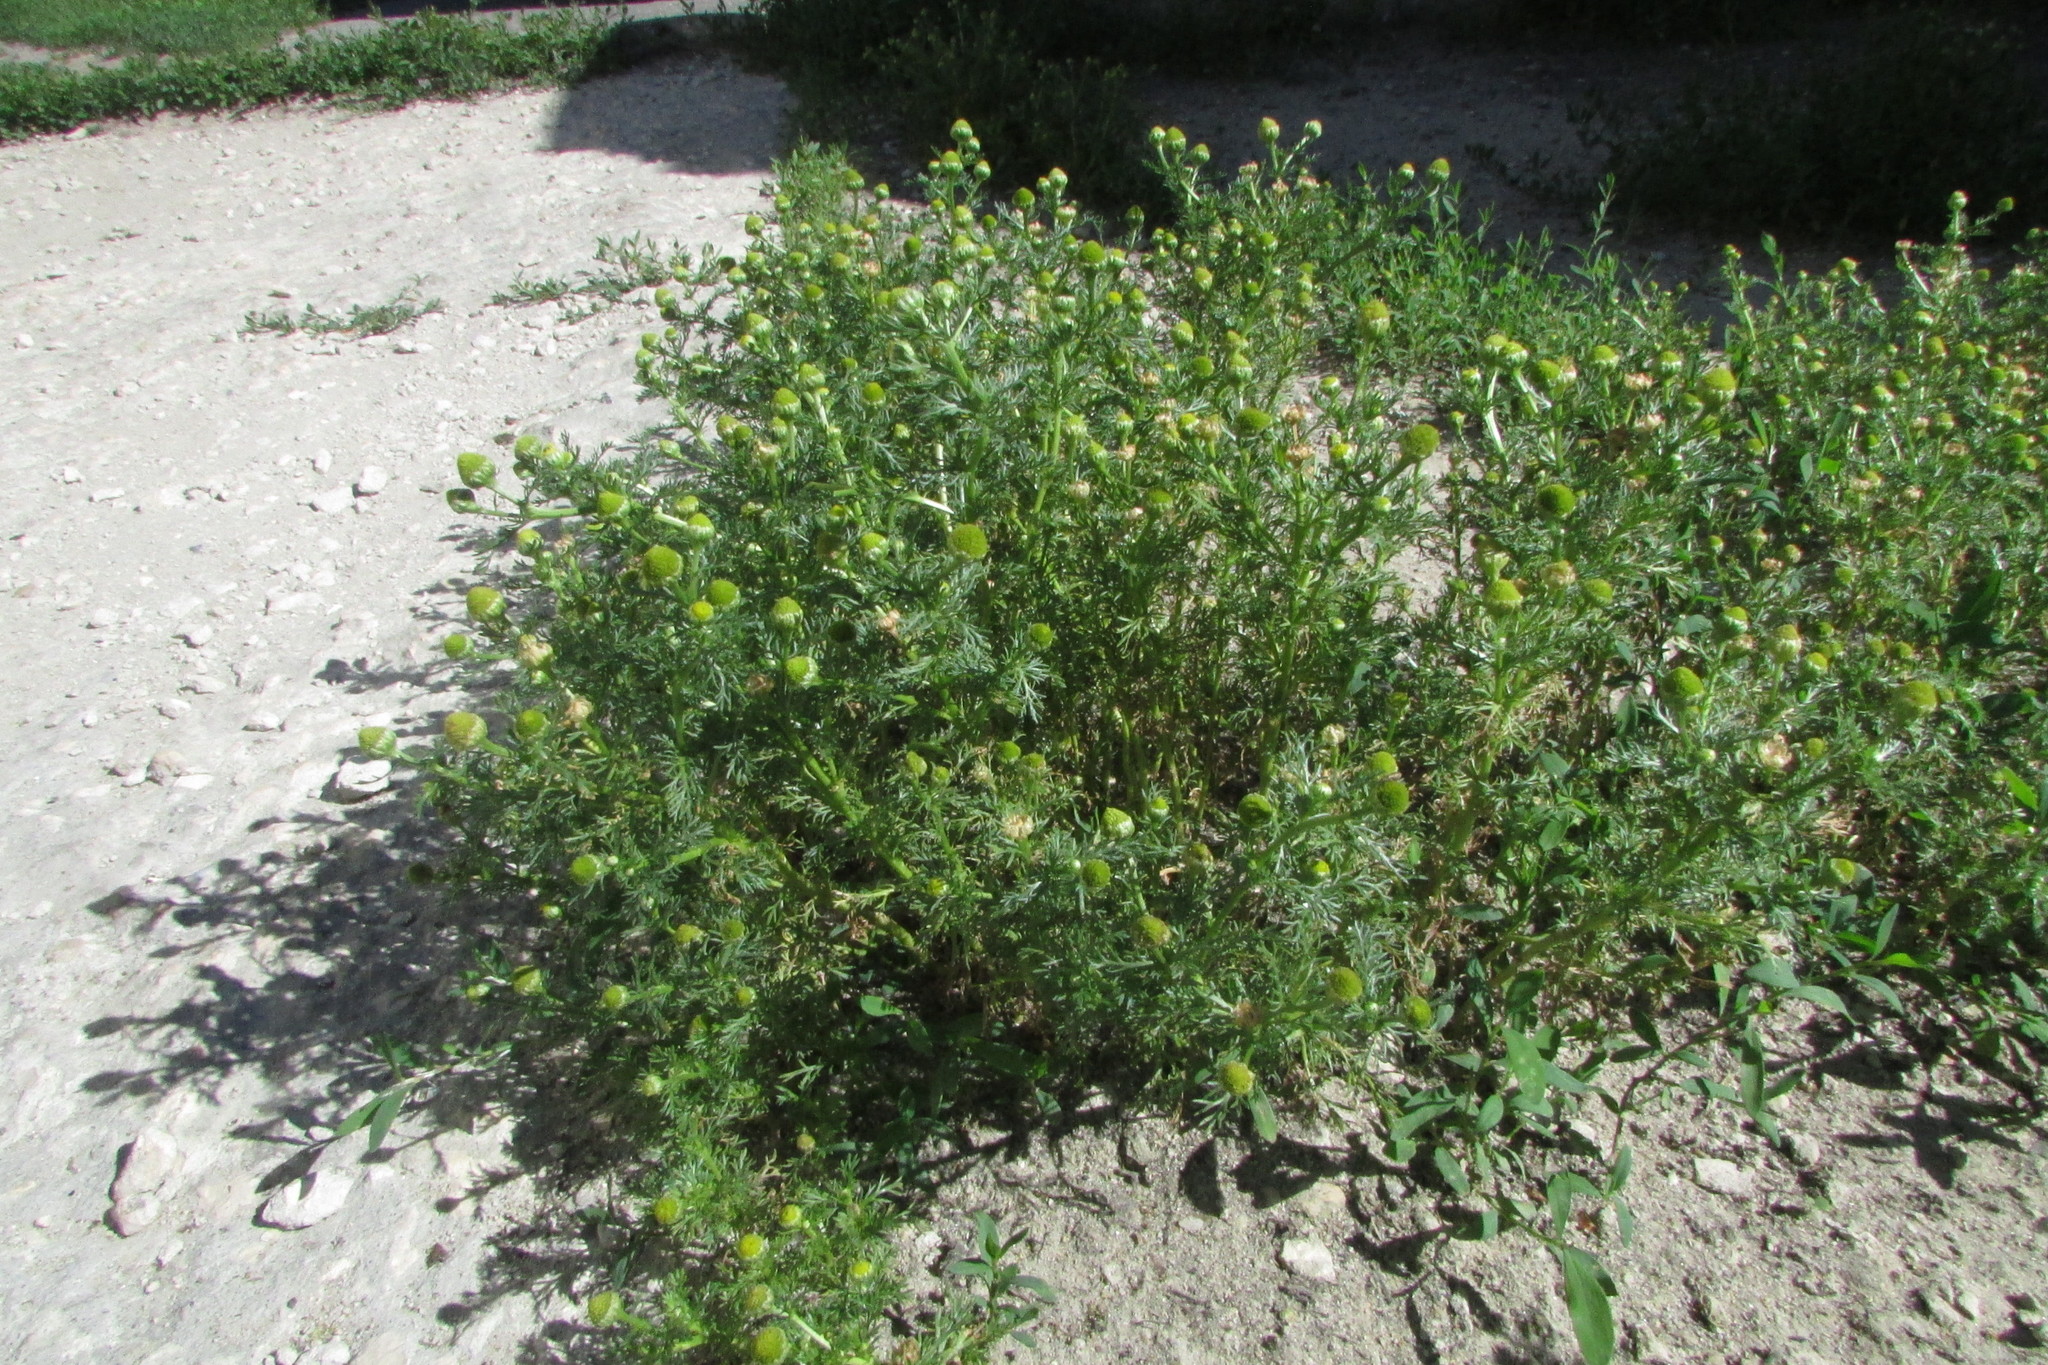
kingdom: Plantae
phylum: Tracheophyta
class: Magnoliopsida
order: Asterales
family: Asteraceae
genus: Matricaria
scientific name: Matricaria discoidea
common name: Disc mayweed
